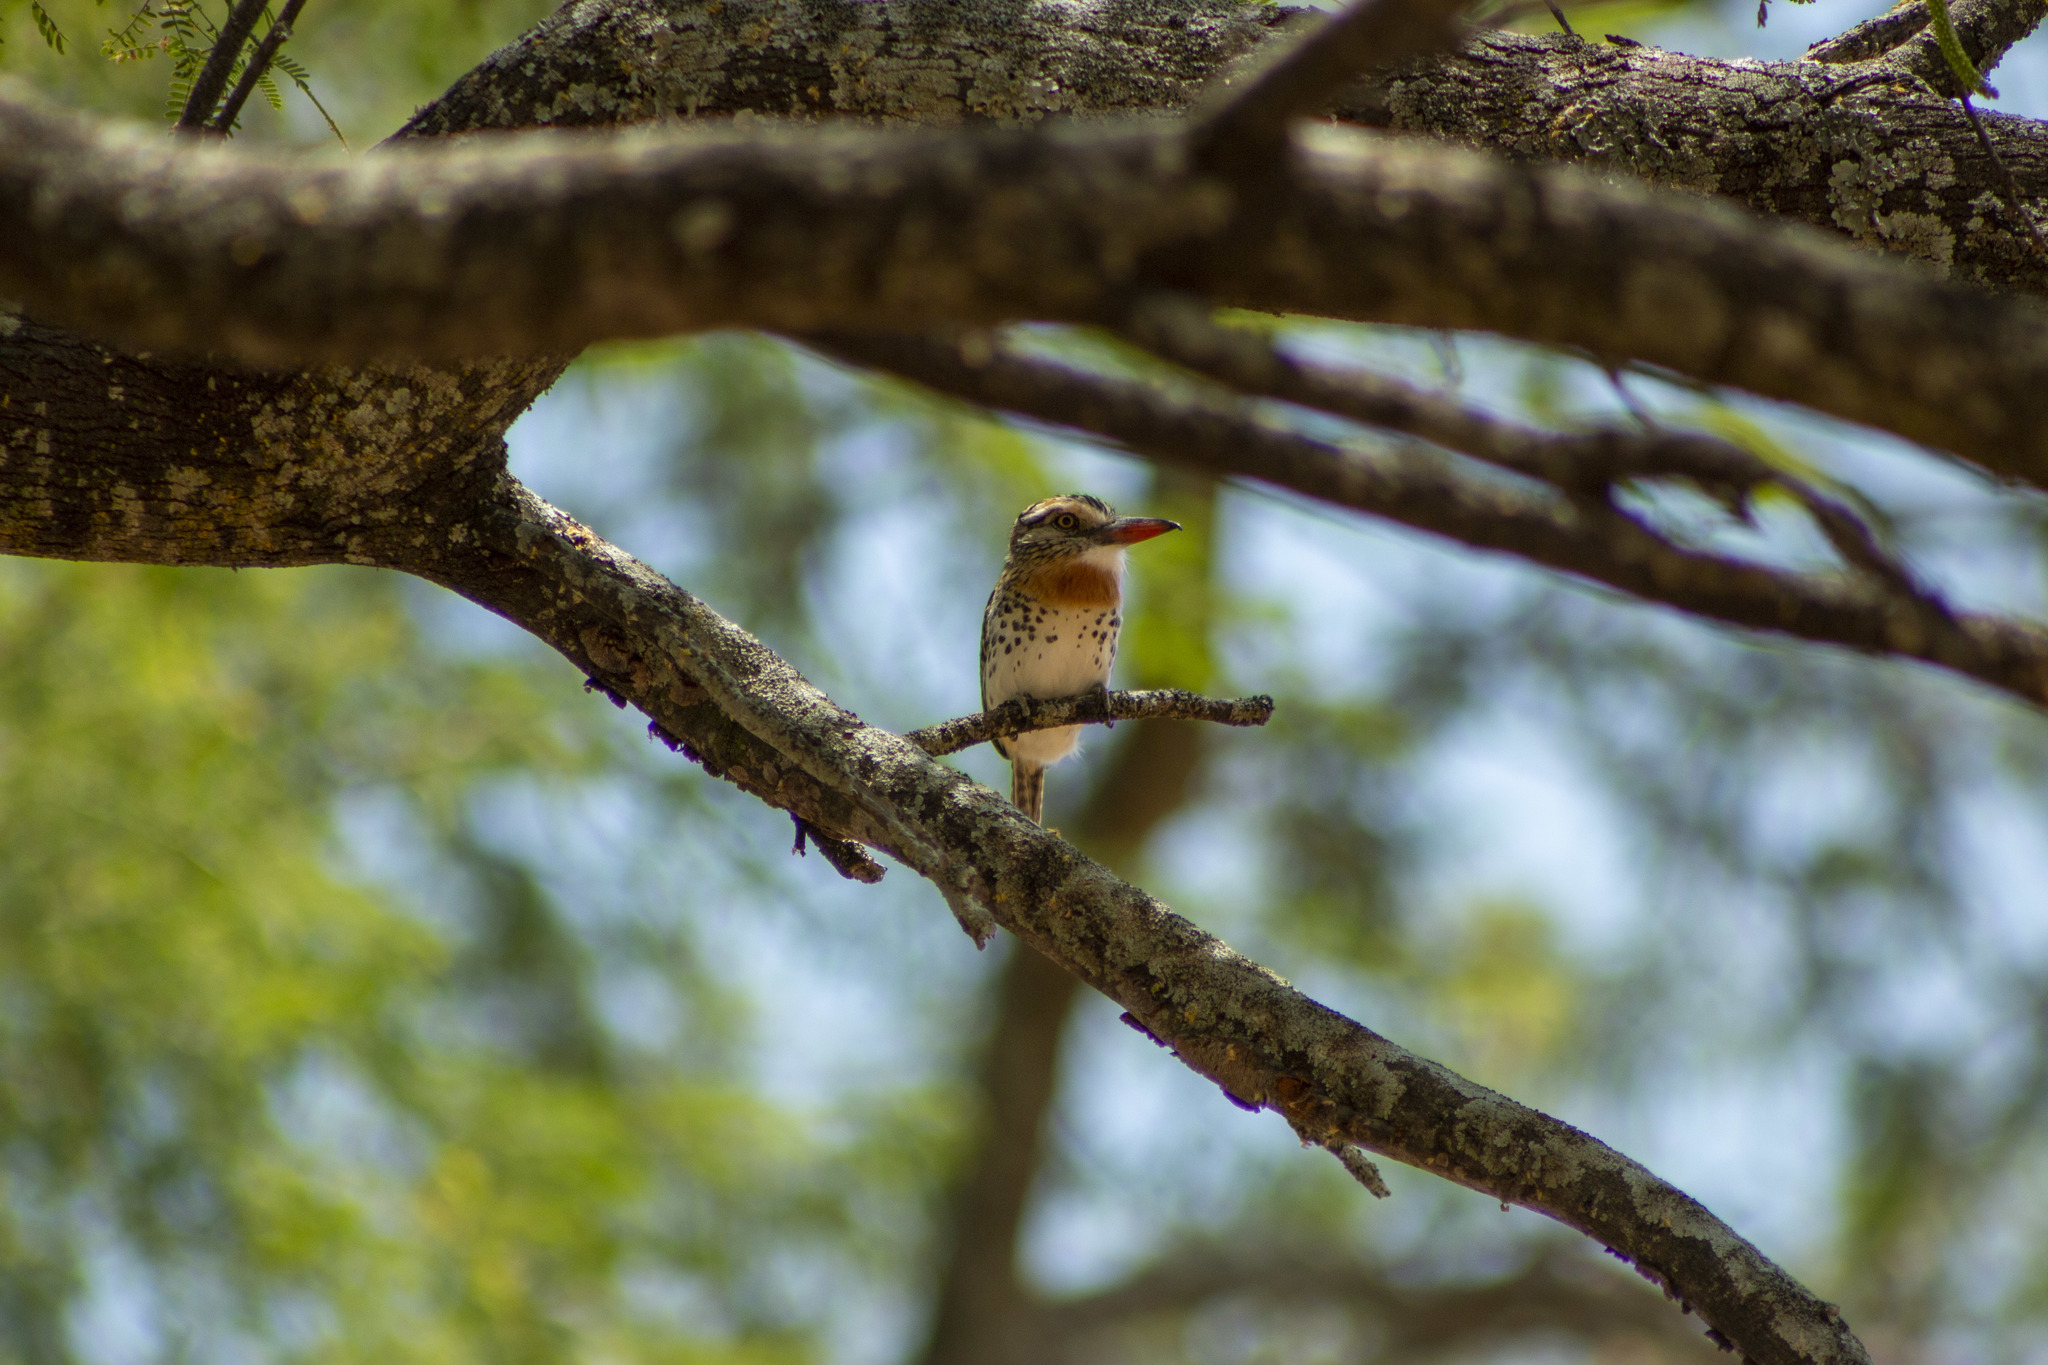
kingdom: Animalia
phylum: Chordata
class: Aves
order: Piciformes
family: Bucconidae
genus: Nystalus
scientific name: Nystalus maculatus
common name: Caatinga puffbird
